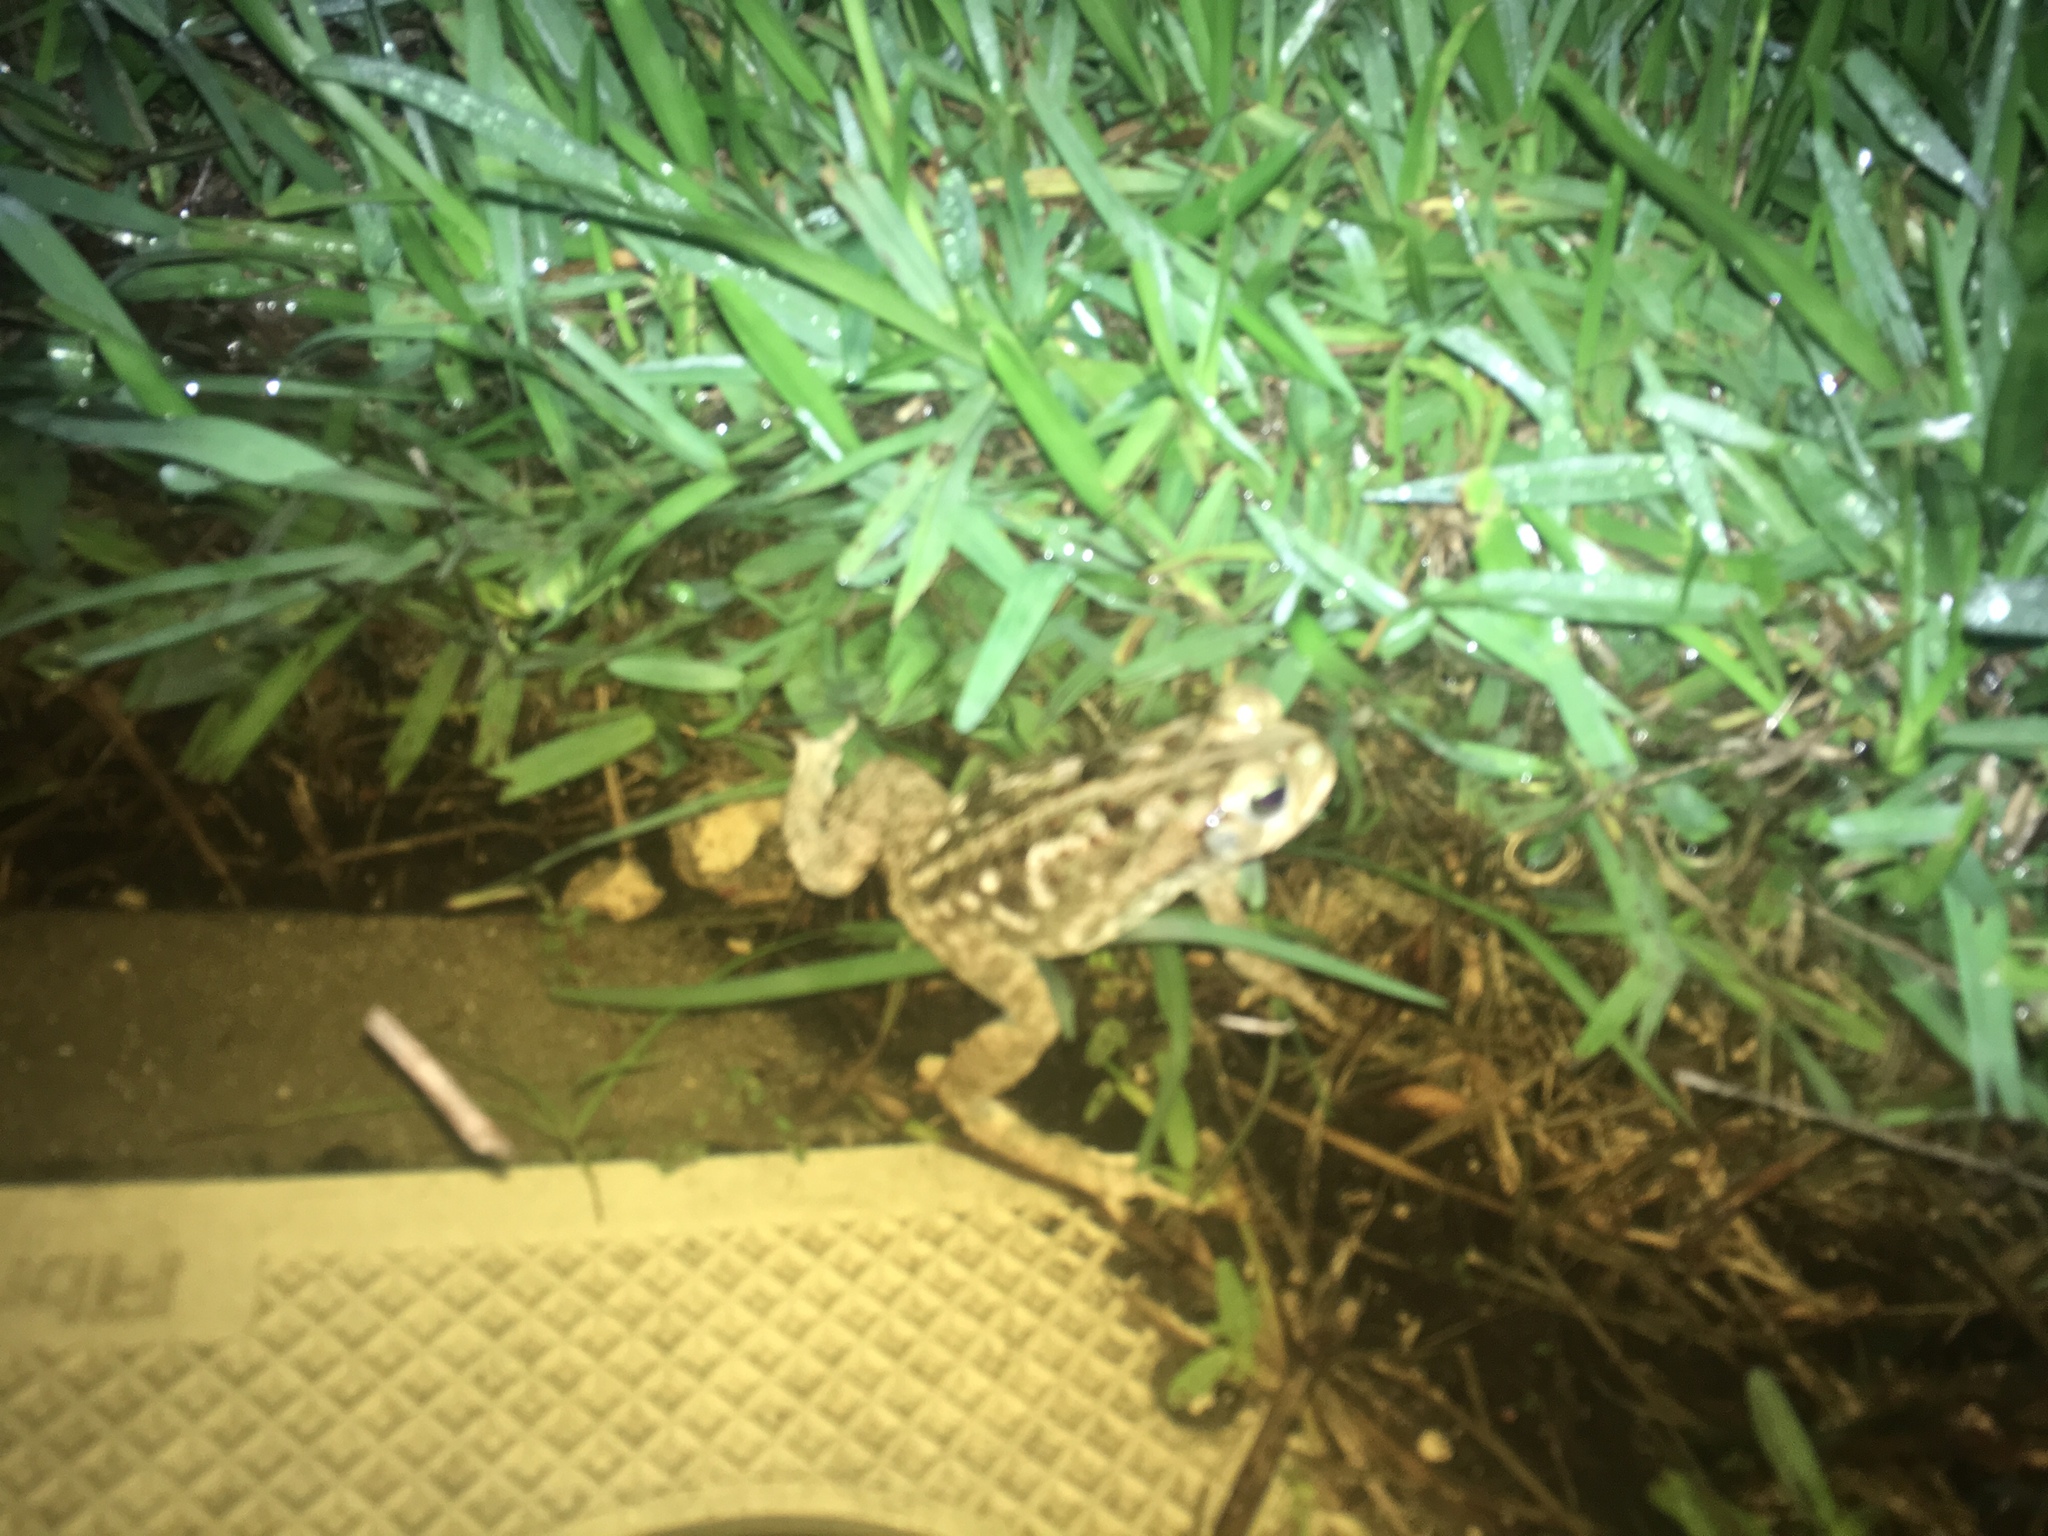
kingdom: Animalia
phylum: Chordata
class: Amphibia
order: Anura
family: Bufonidae
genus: Rhinella
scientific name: Rhinella marina
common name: Cane toad
